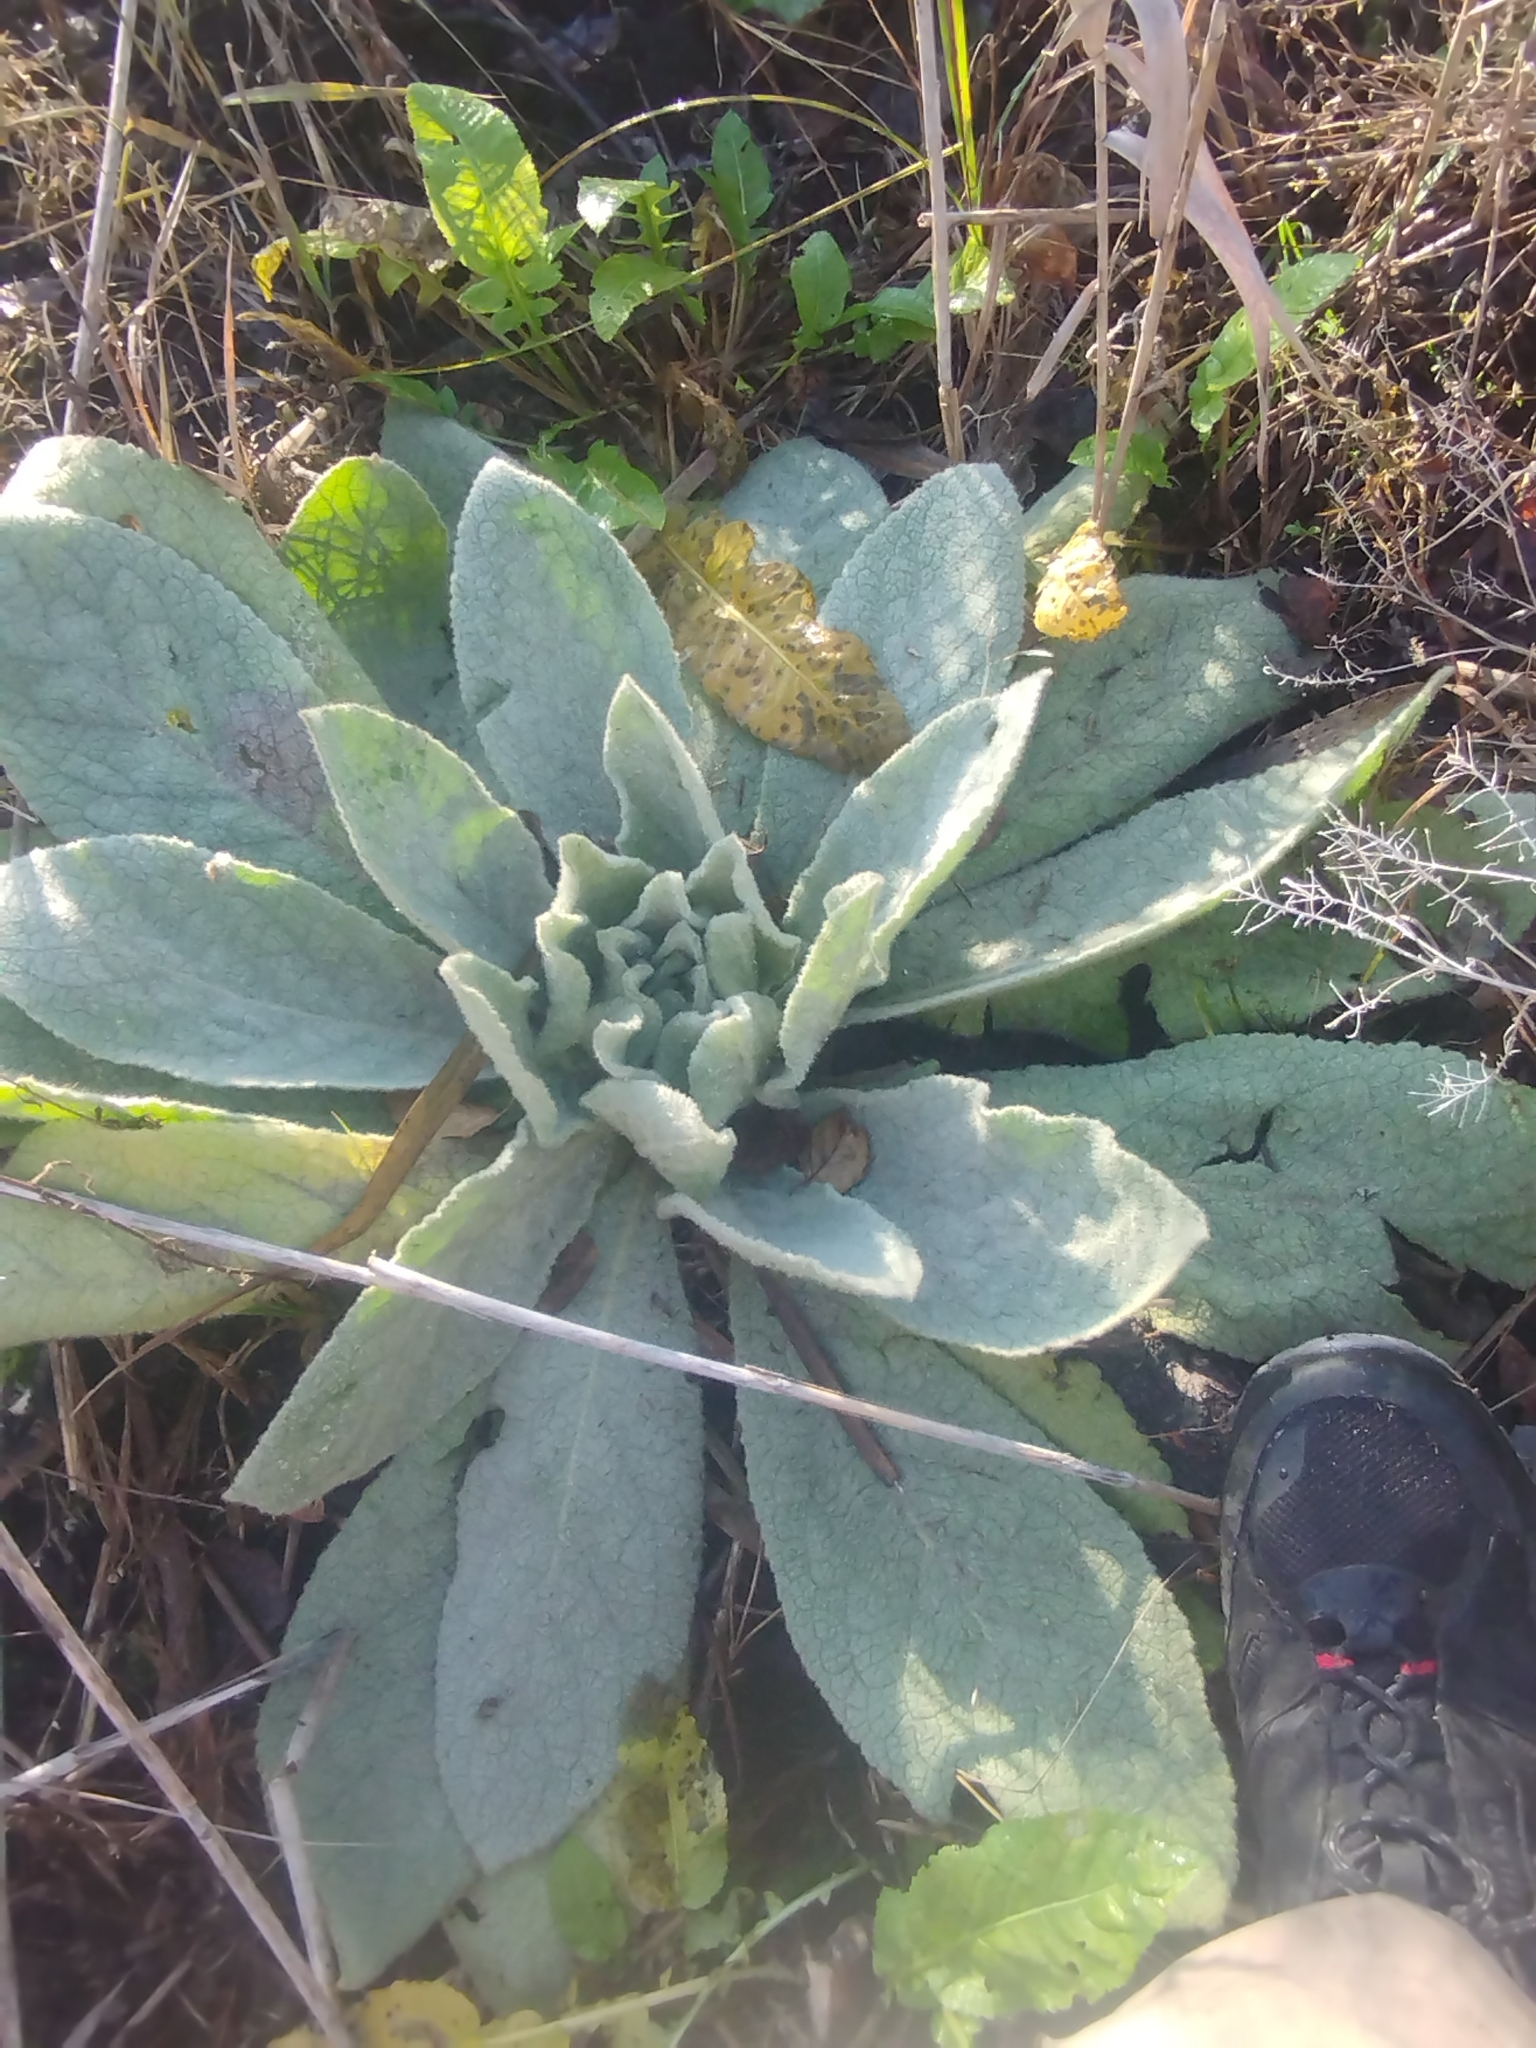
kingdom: Plantae
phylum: Tracheophyta
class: Magnoliopsida
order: Lamiales
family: Scrophulariaceae
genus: Verbascum
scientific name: Verbascum thapsus
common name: Common mullein
